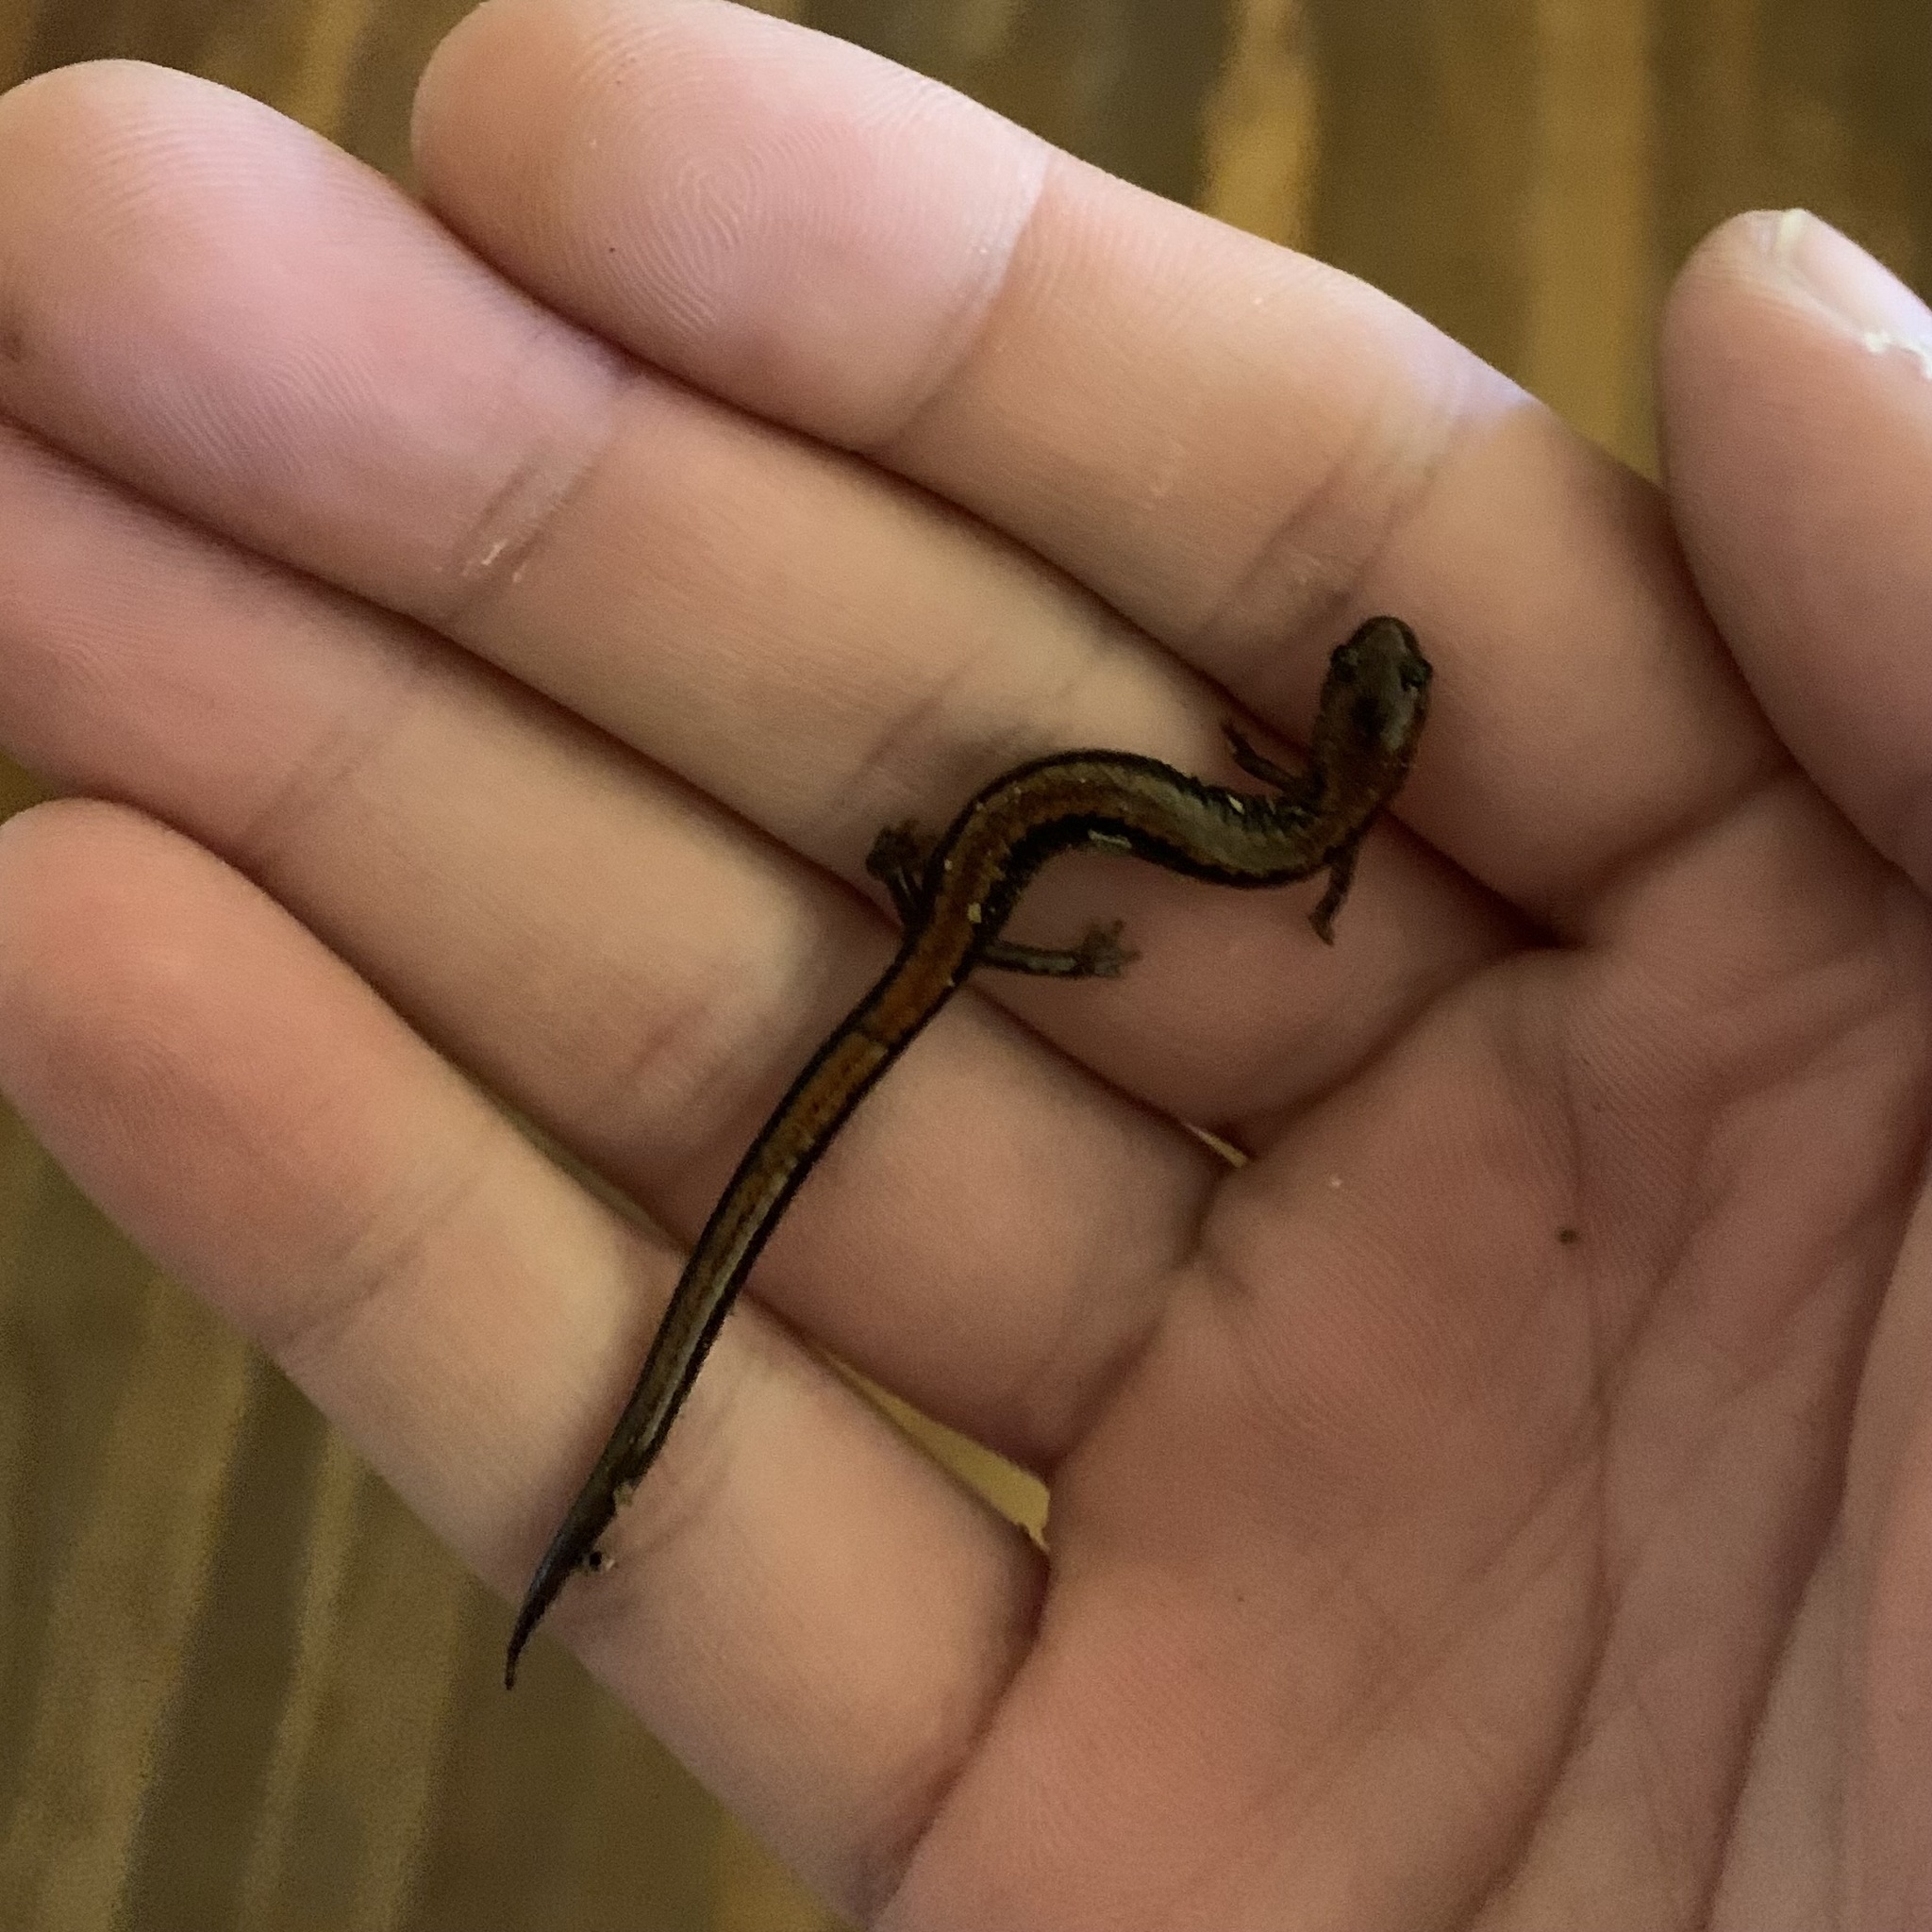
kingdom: Animalia
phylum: Chordata
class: Amphibia
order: Caudata
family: Plethodontidae
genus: Plethodon
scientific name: Plethodon cinereus
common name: Redback salamander
